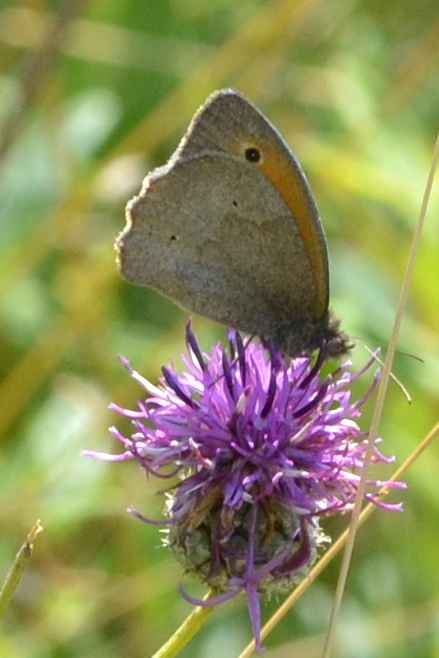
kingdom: Animalia
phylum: Arthropoda
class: Insecta
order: Lepidoptera
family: Nymphalidae
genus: Maniola
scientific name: Maniola jurtina
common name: Meadow brown
